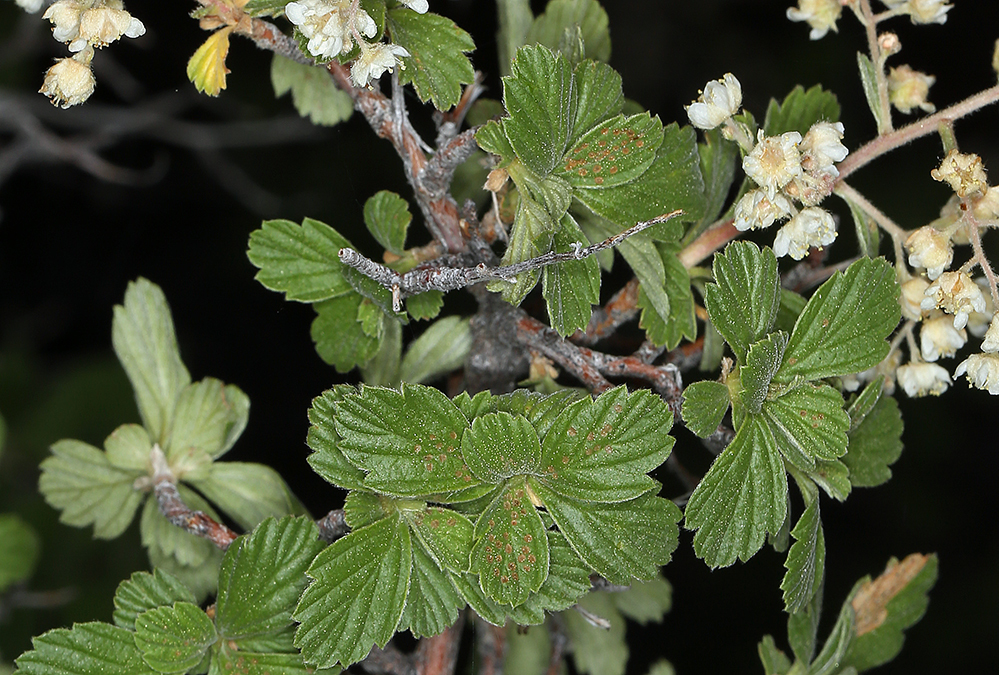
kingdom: Plantae
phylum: Tracheophyta
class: Magnoliopsida
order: Rosales
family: Rosaceae
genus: Holodiscus
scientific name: Holodiscus discolor
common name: Oceanspray
